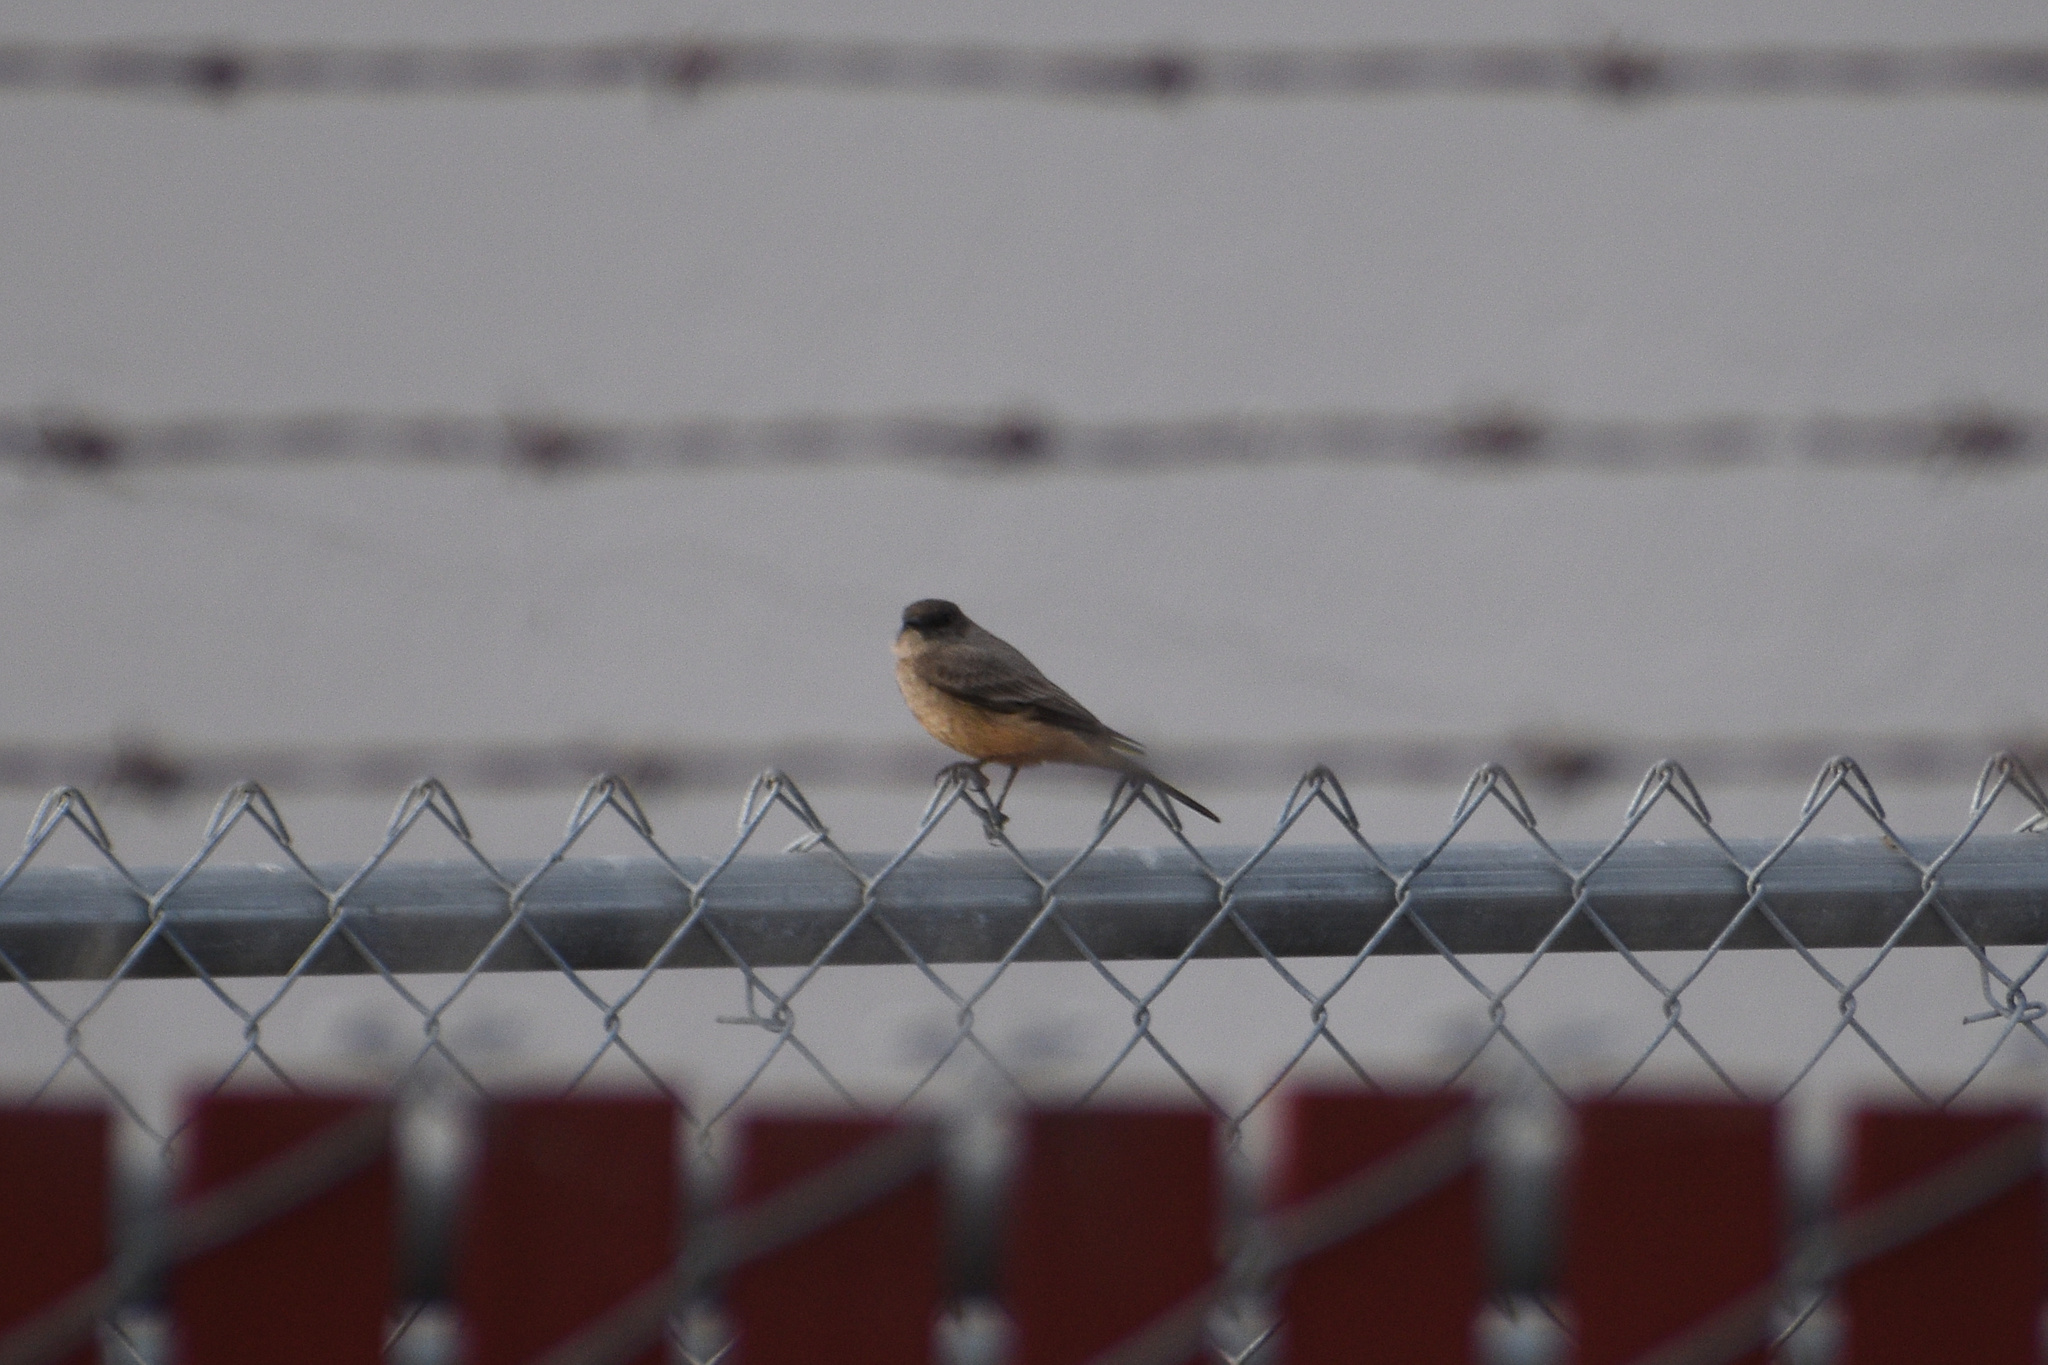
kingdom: Animalia
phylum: Chordata
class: Aves
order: Passeriformes
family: Tyrannidae
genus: Sayornis
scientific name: Sayornis saya
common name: Say's phoebe
